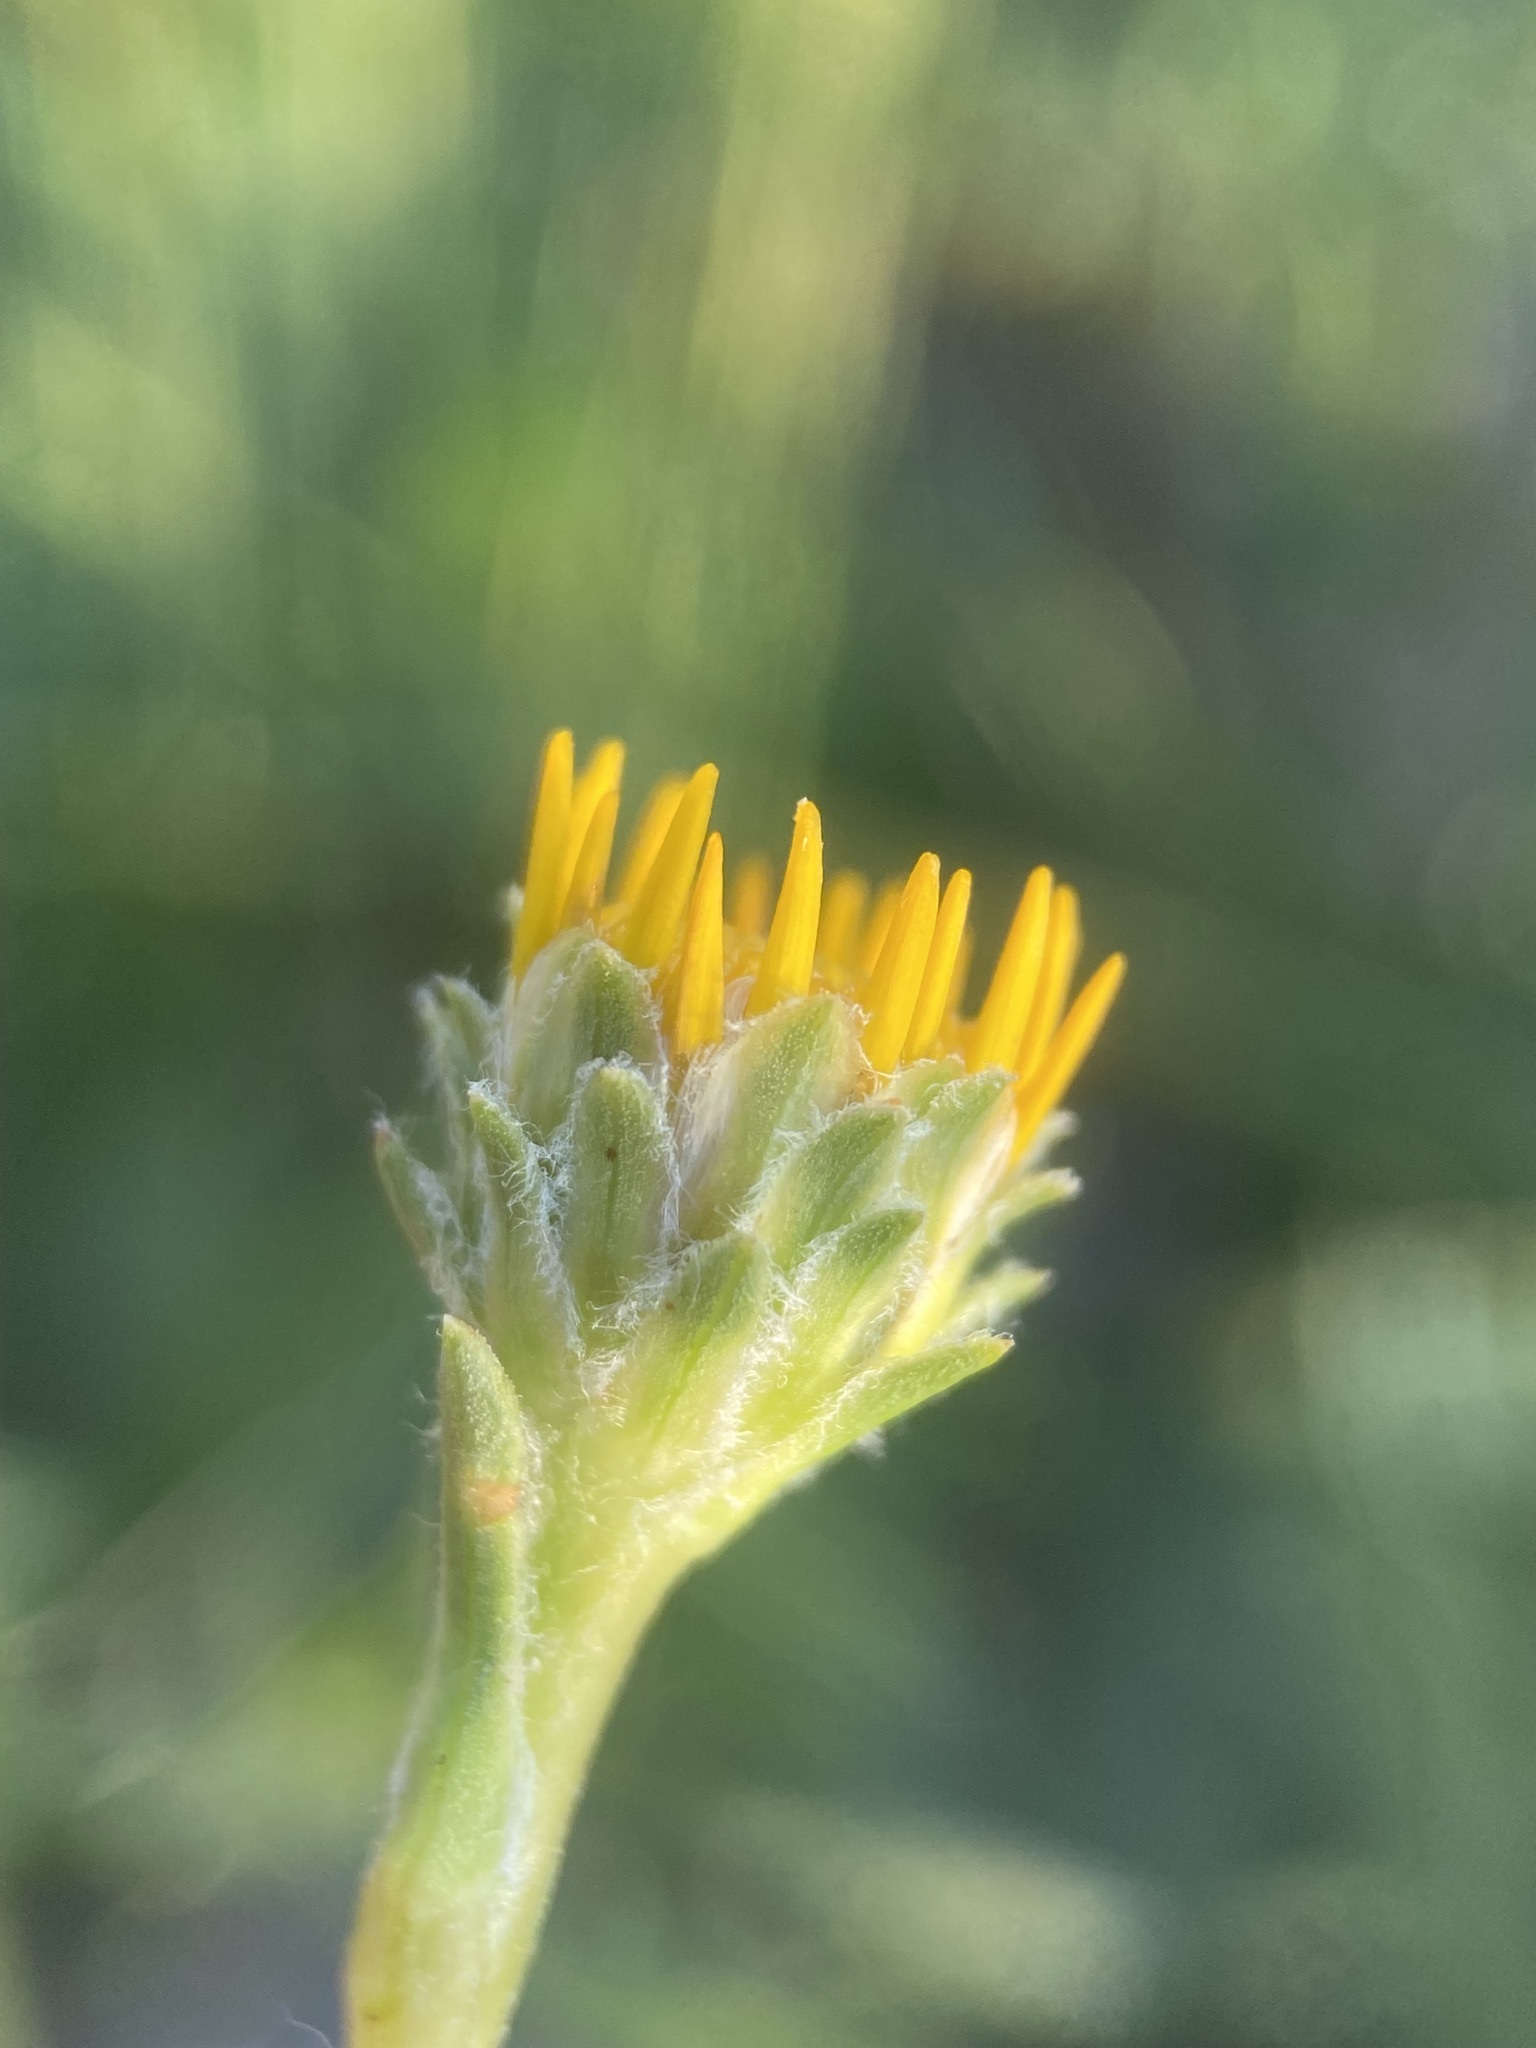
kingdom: Plantae
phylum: Tracheophyta
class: Magnoliopsida
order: Asterales
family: Asteraceae
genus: Pyrrocoma
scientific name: Pyrrocoma lanceolata
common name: Lance-leaf goldenweed
